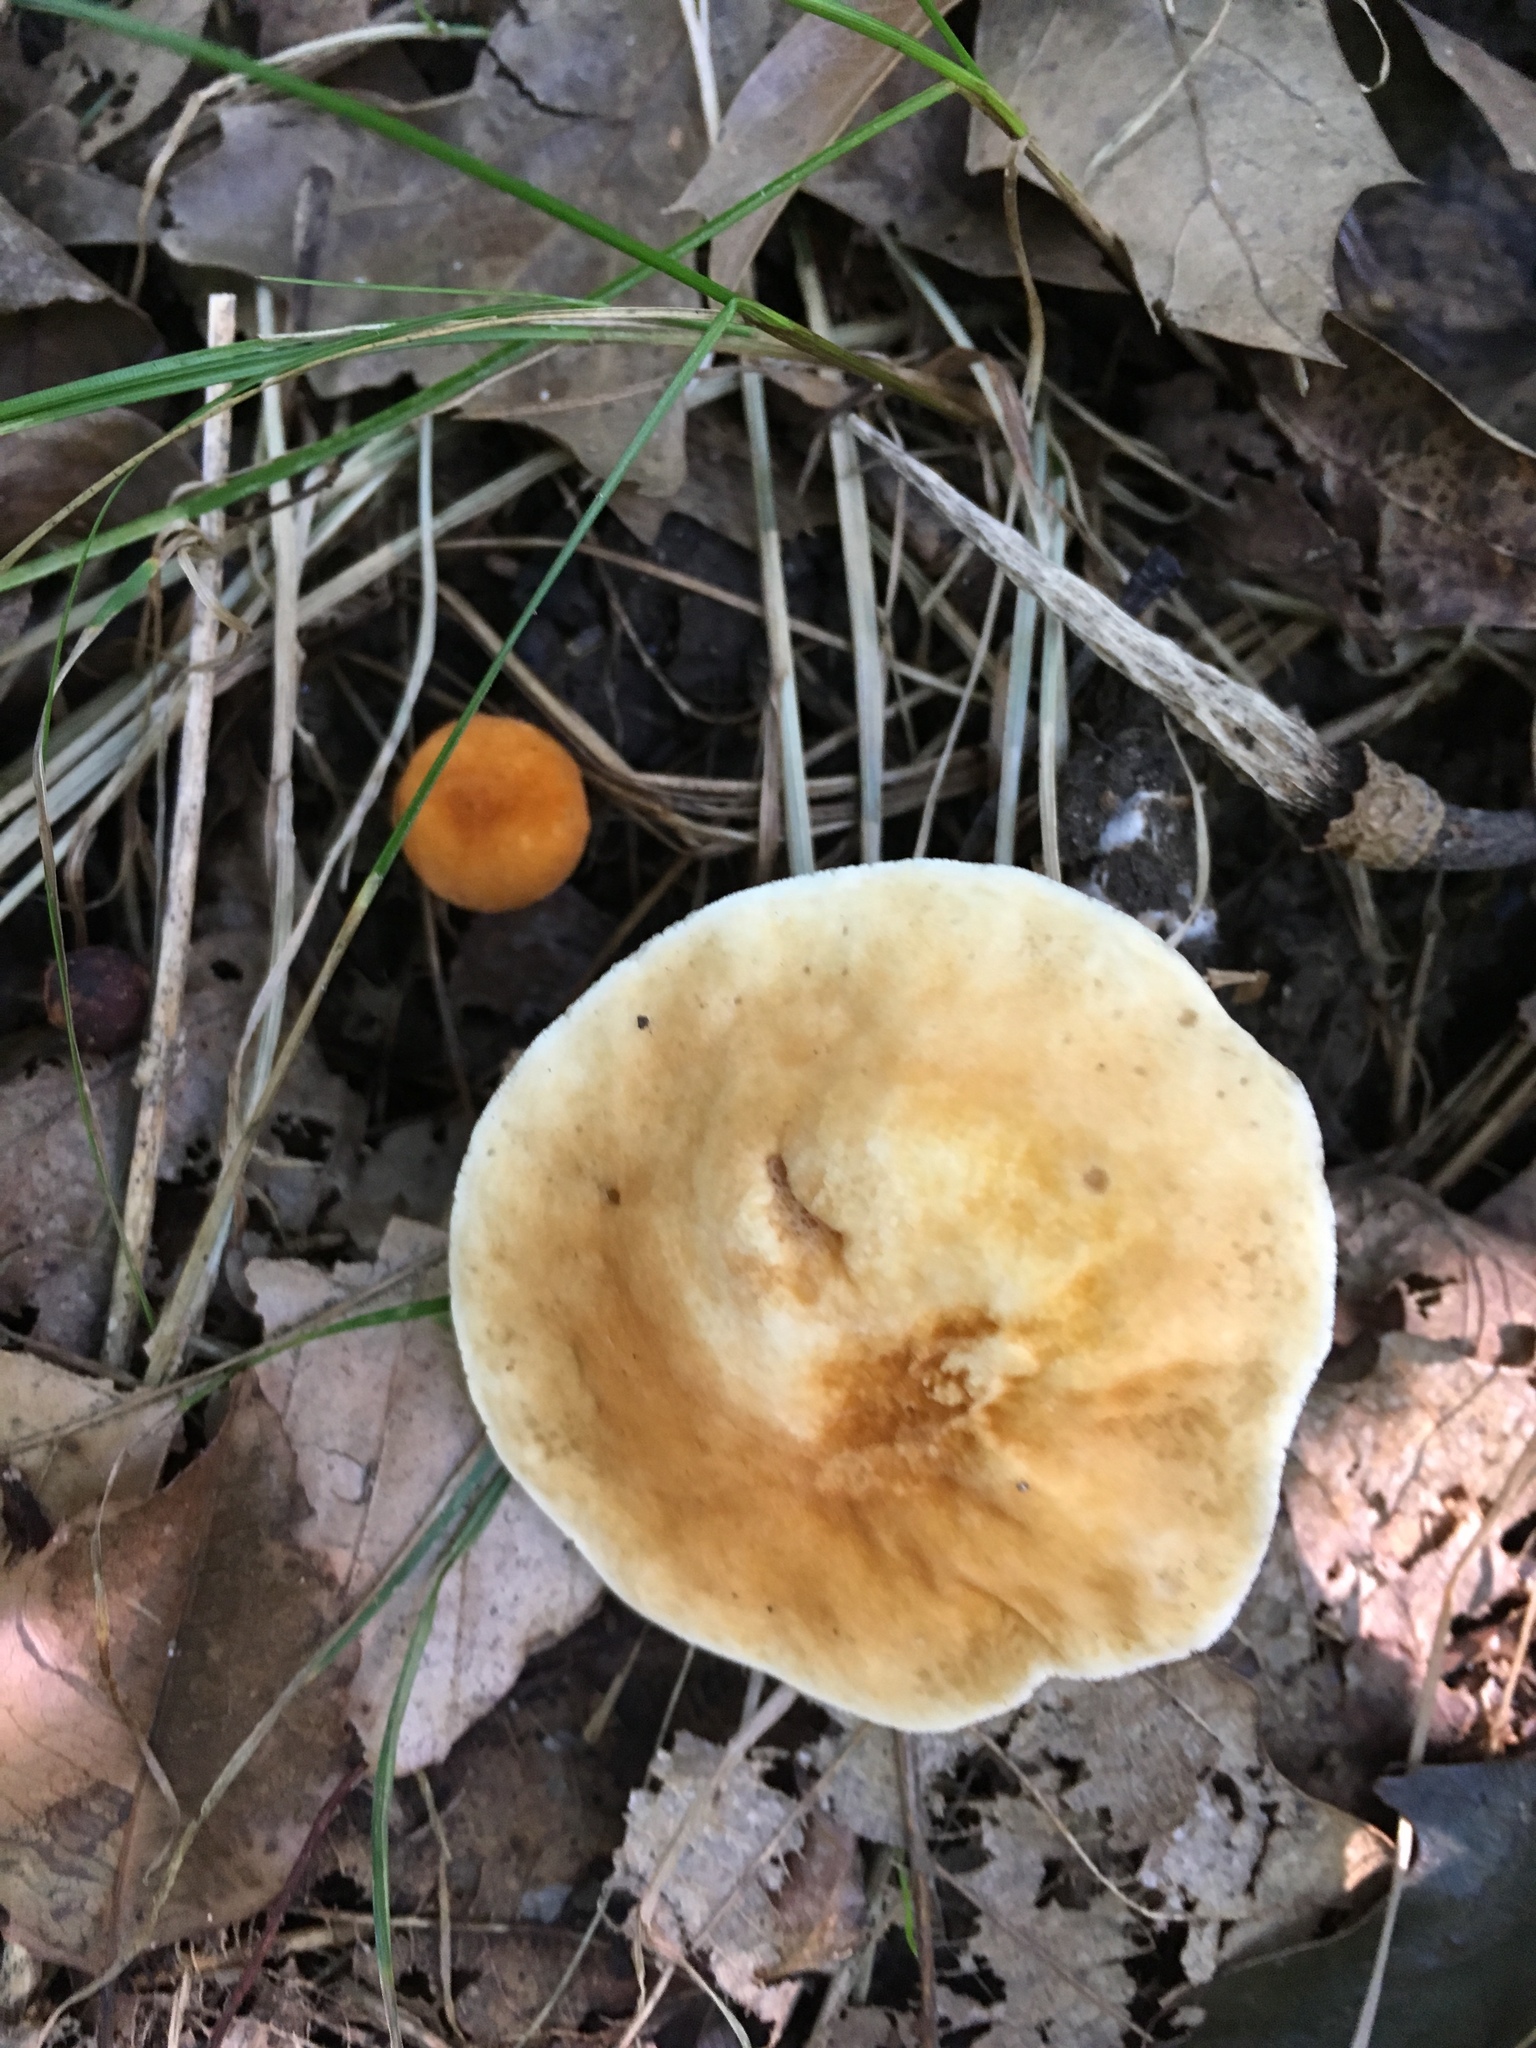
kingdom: Fungi
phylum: Basidiomycota
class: Agaricomycetes
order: Boletales
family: Gyroporaceae
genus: Gyroporus
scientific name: Gyroporus castaneus
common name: Chestnut bolete
